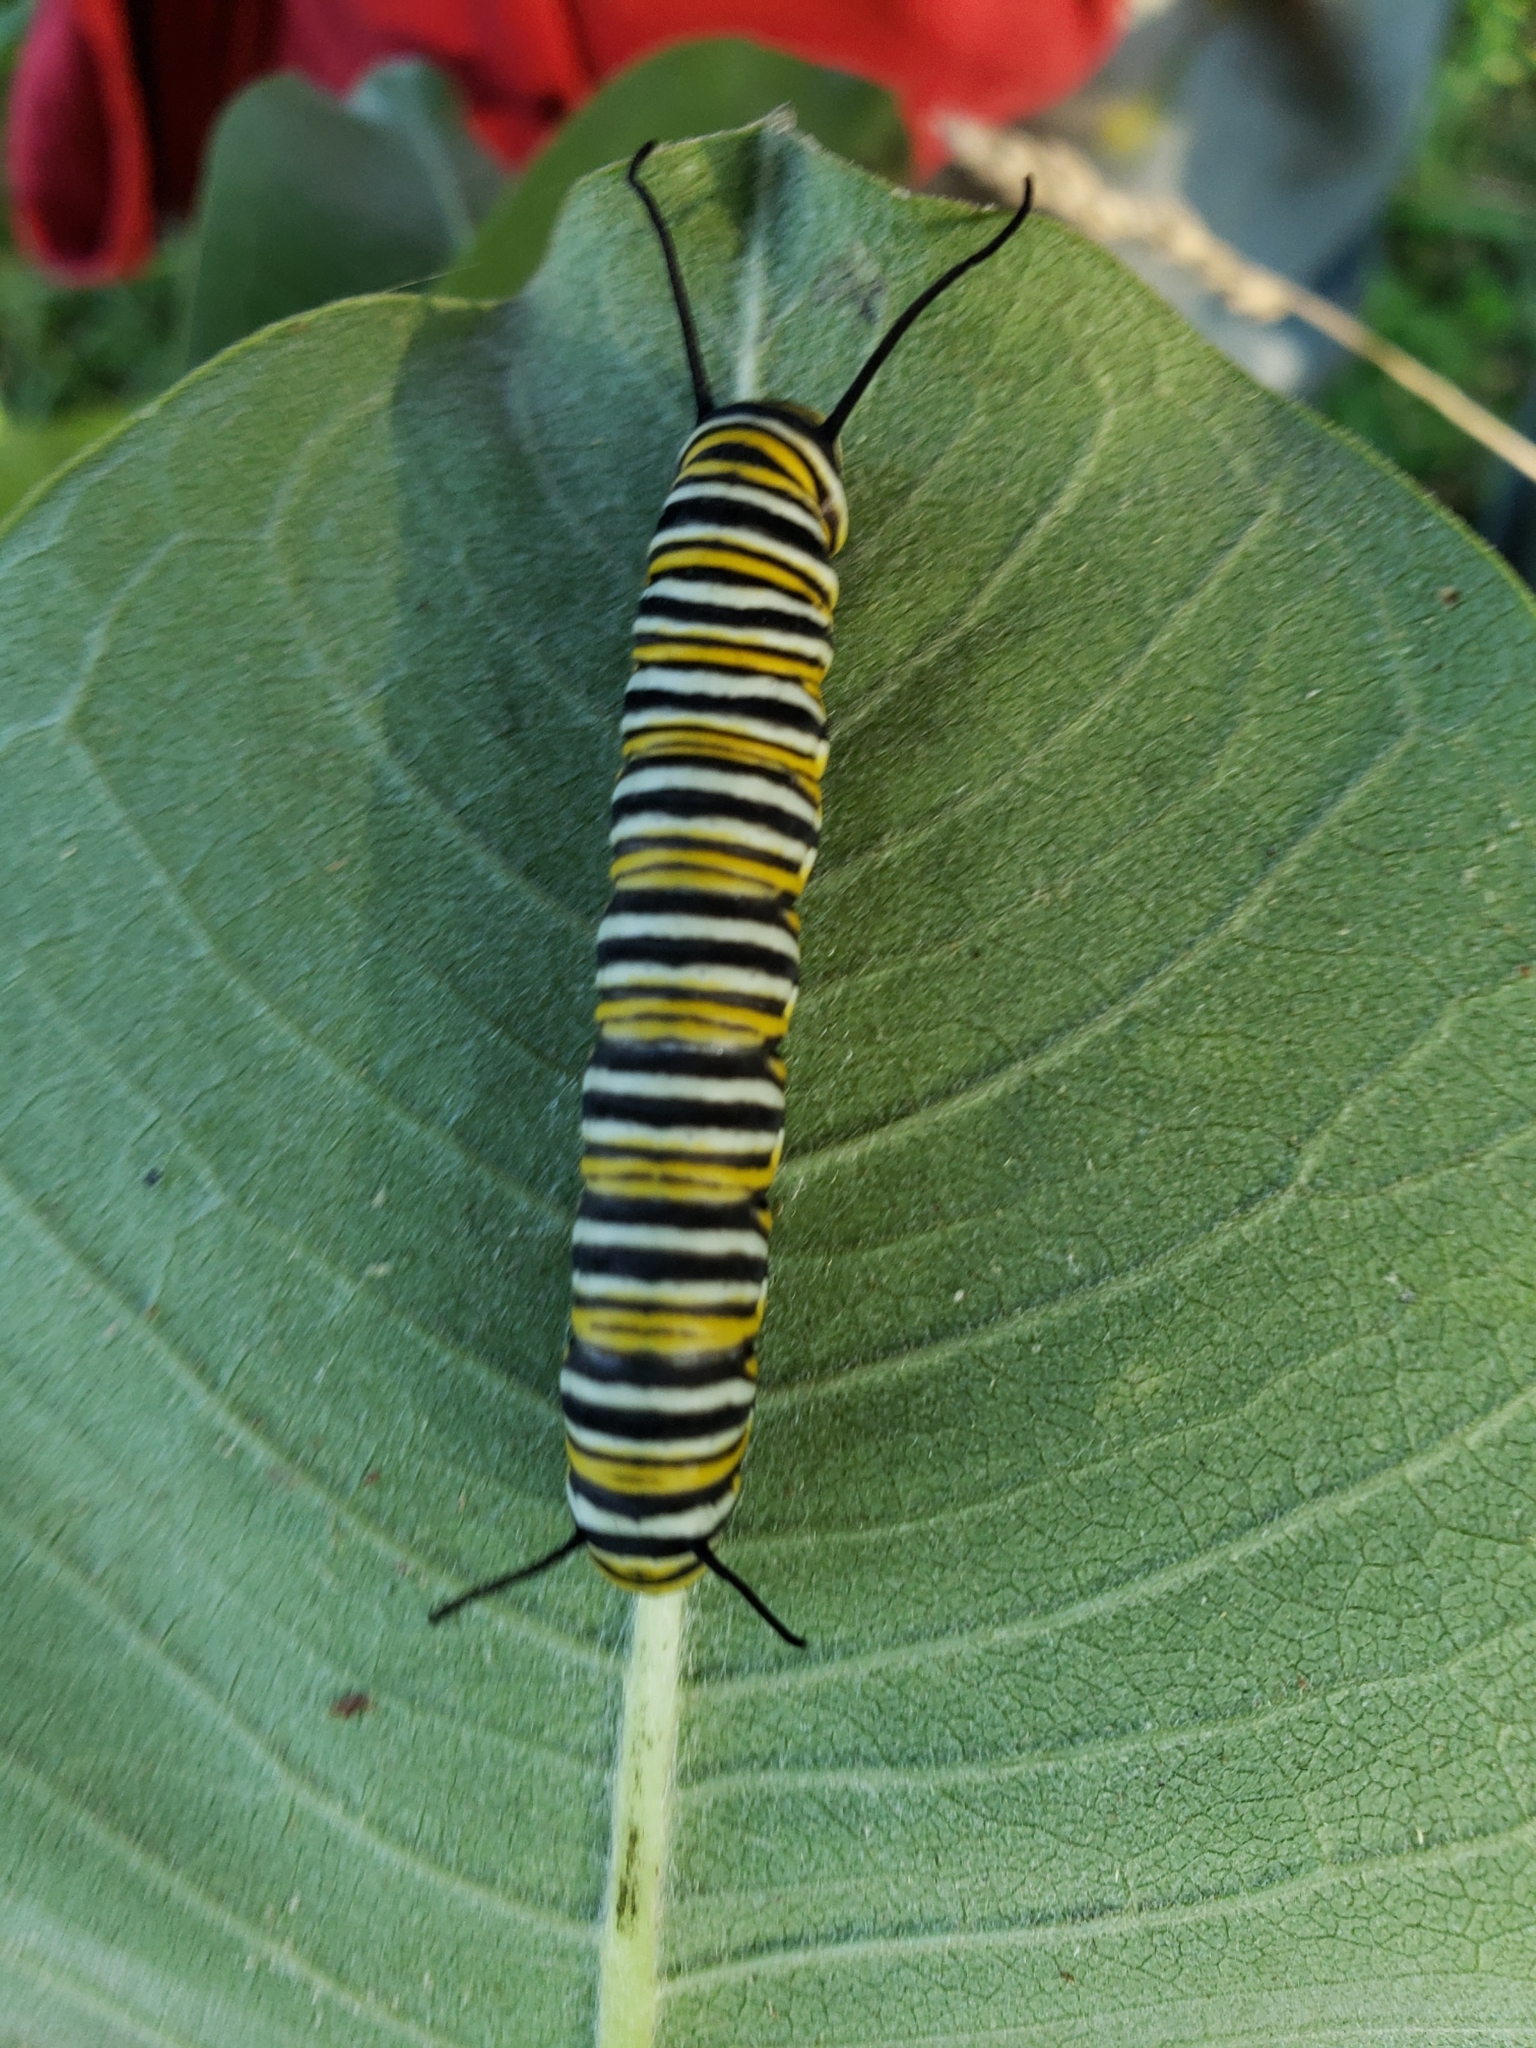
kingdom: Animalia
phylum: Arthropoda
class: Insecta
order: Lepidoptera
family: Nymphalidae
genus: Danaus
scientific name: Danaus plexippus
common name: Monarch
